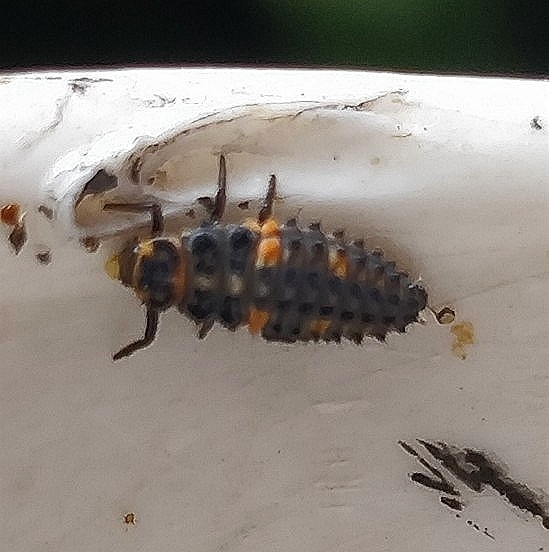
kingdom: Animalia
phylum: Arthropoda
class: Insecta
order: Coleoptera
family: Coccinellidae
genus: Coccinella
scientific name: Coccinella septempunctata
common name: Sevenspotted lady beetle
